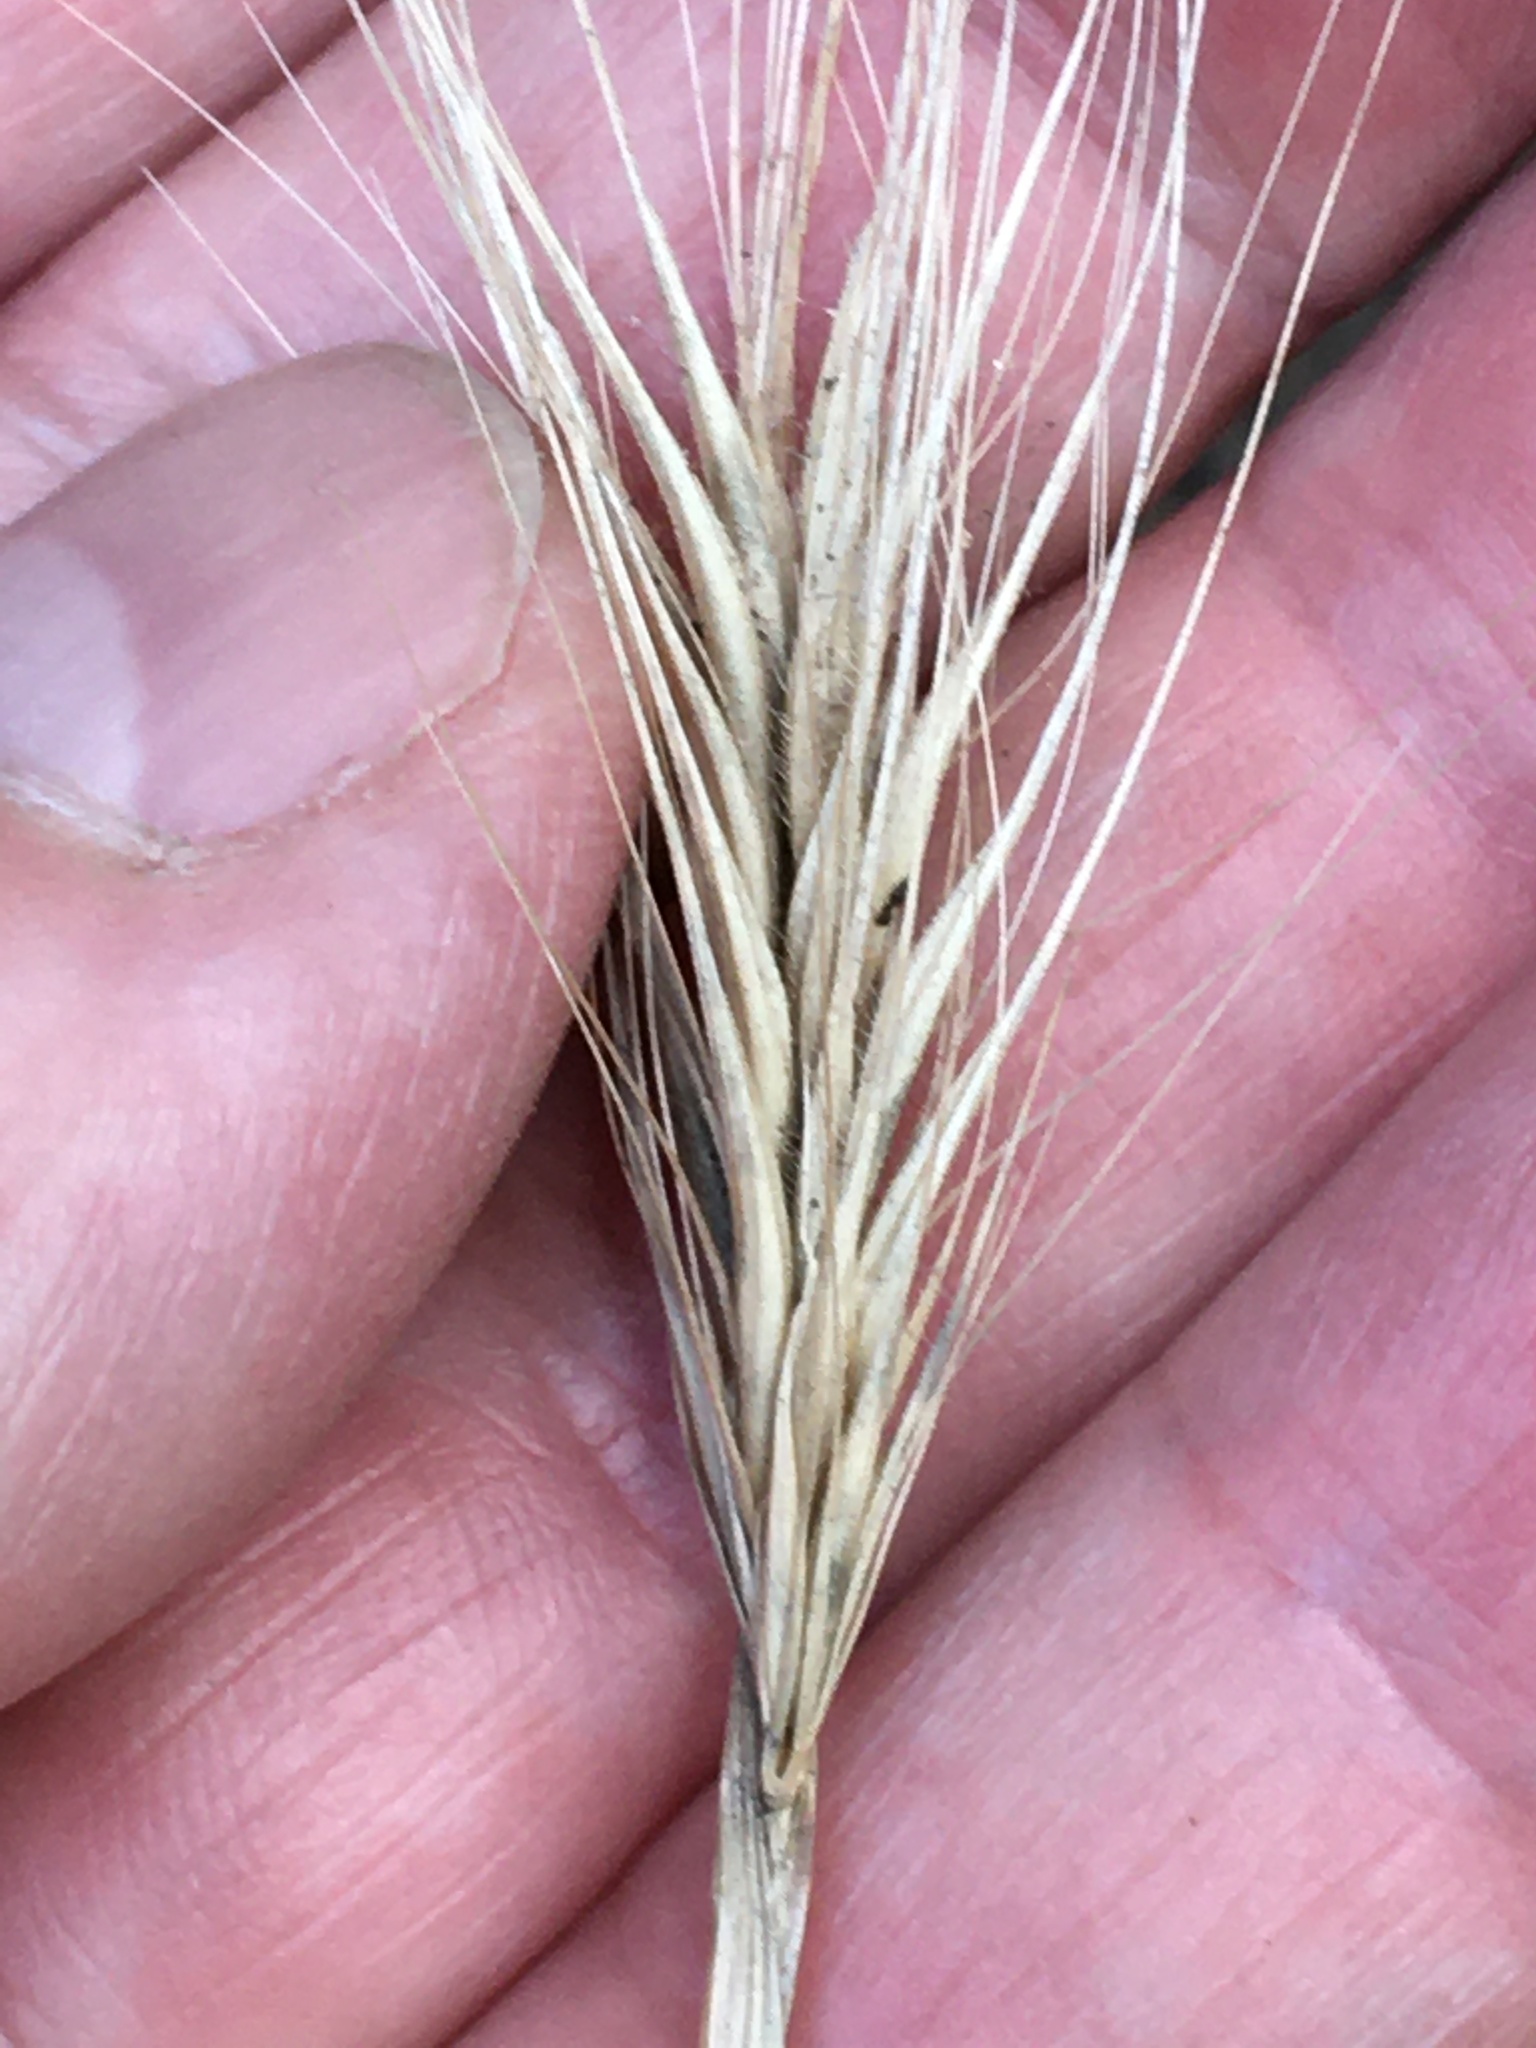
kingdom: Plantae
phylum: Tracheophyta
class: Liliopsida
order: Poales
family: Poaceae
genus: Hordeum
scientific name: Hordeum murinum
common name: Wall barley
